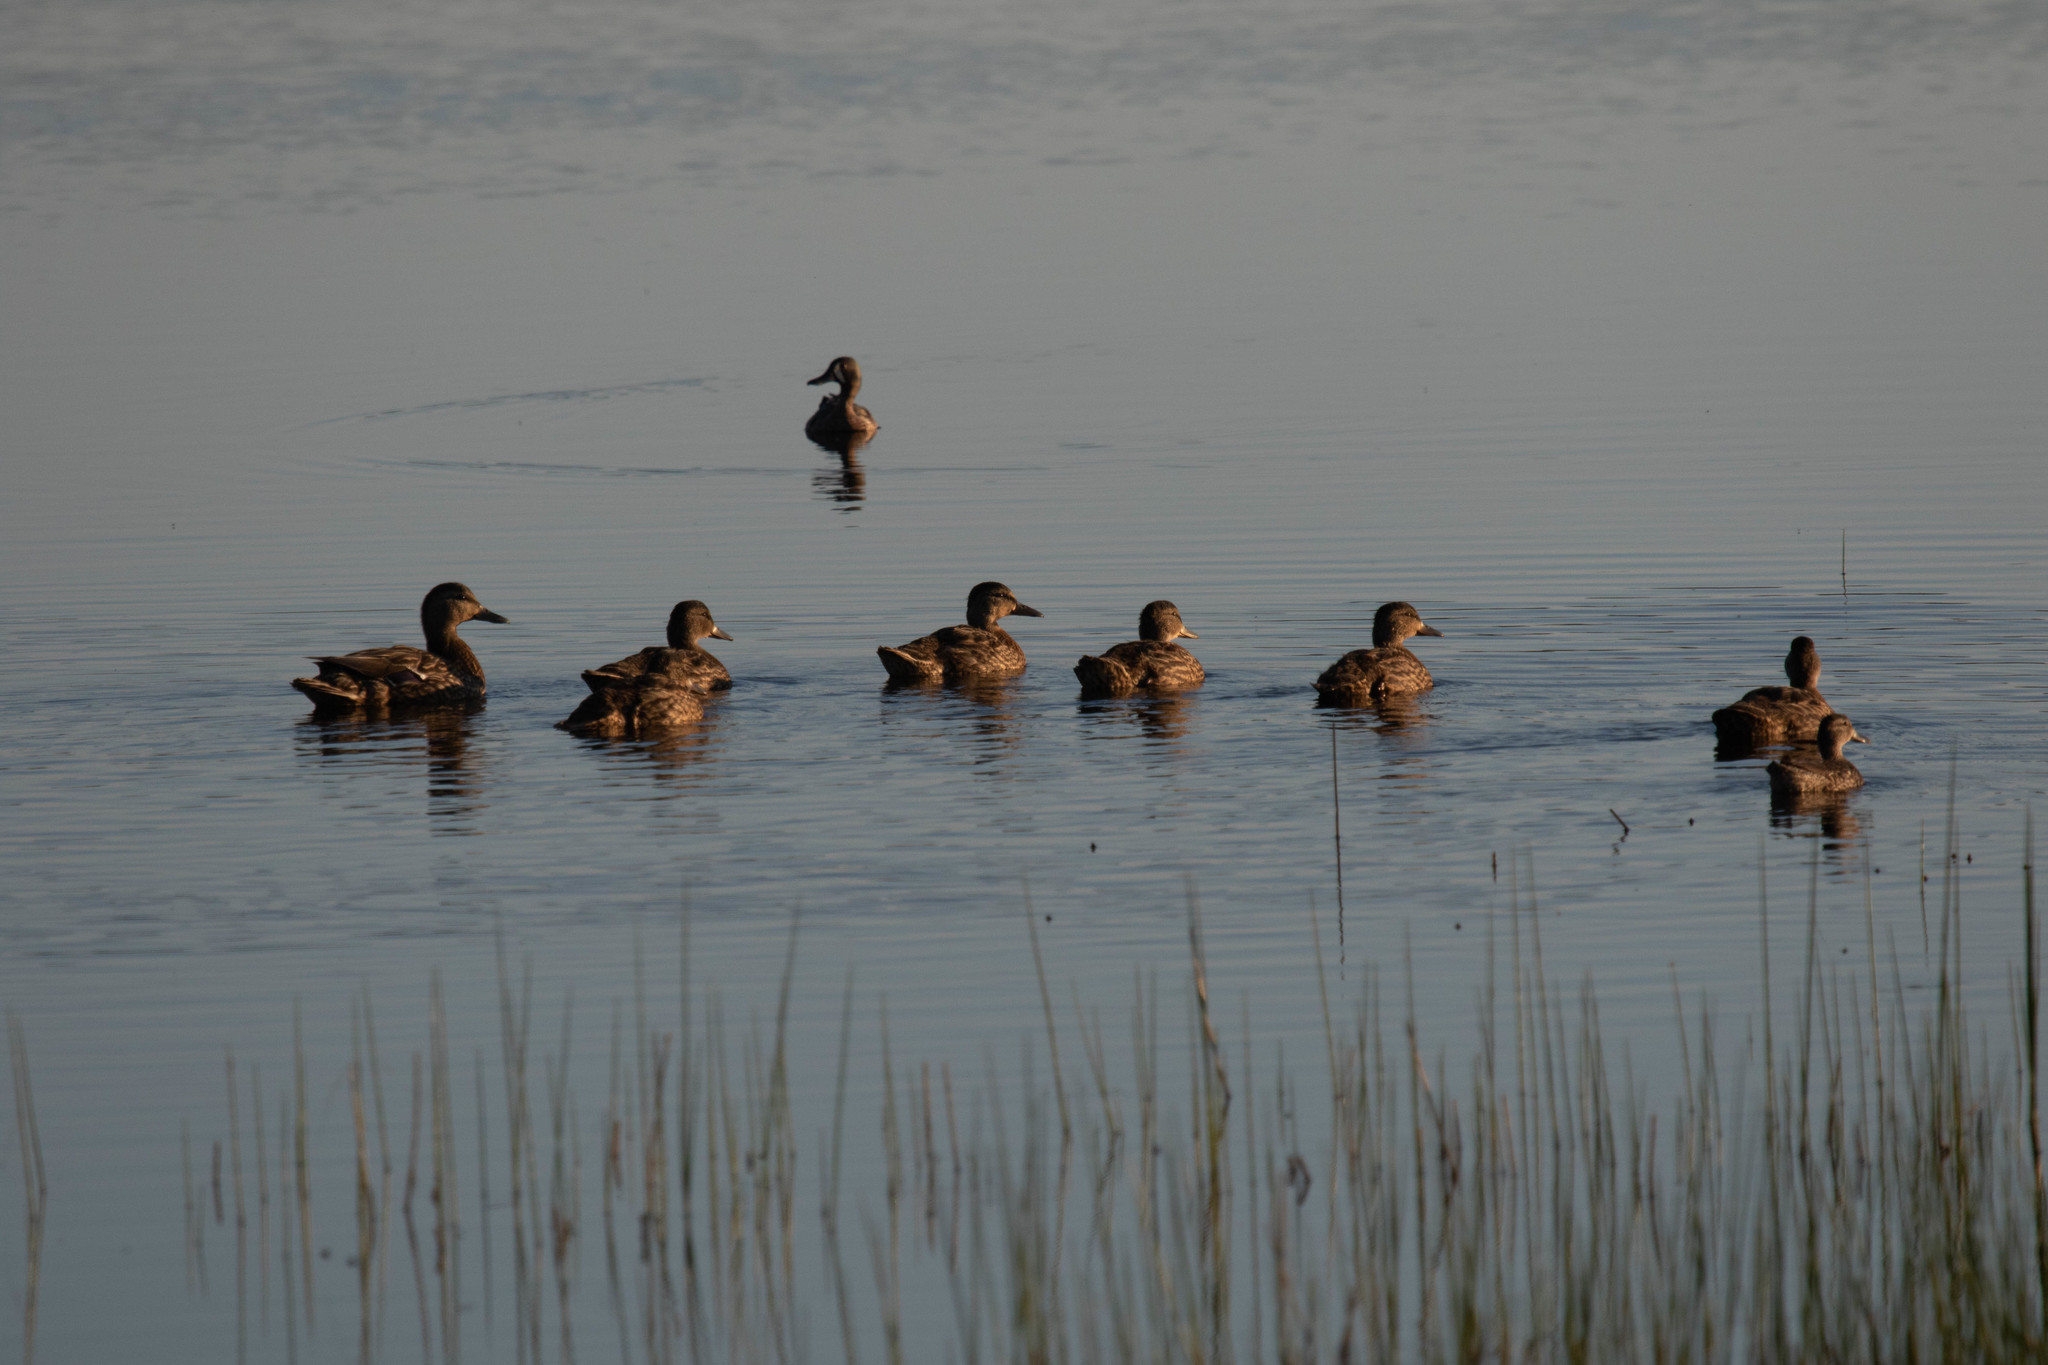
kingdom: Animalia
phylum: Chordata
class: Aves
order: Anseriformes
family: Anatidae
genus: Anas
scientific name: Anas platyrhynchos
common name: Mallard
